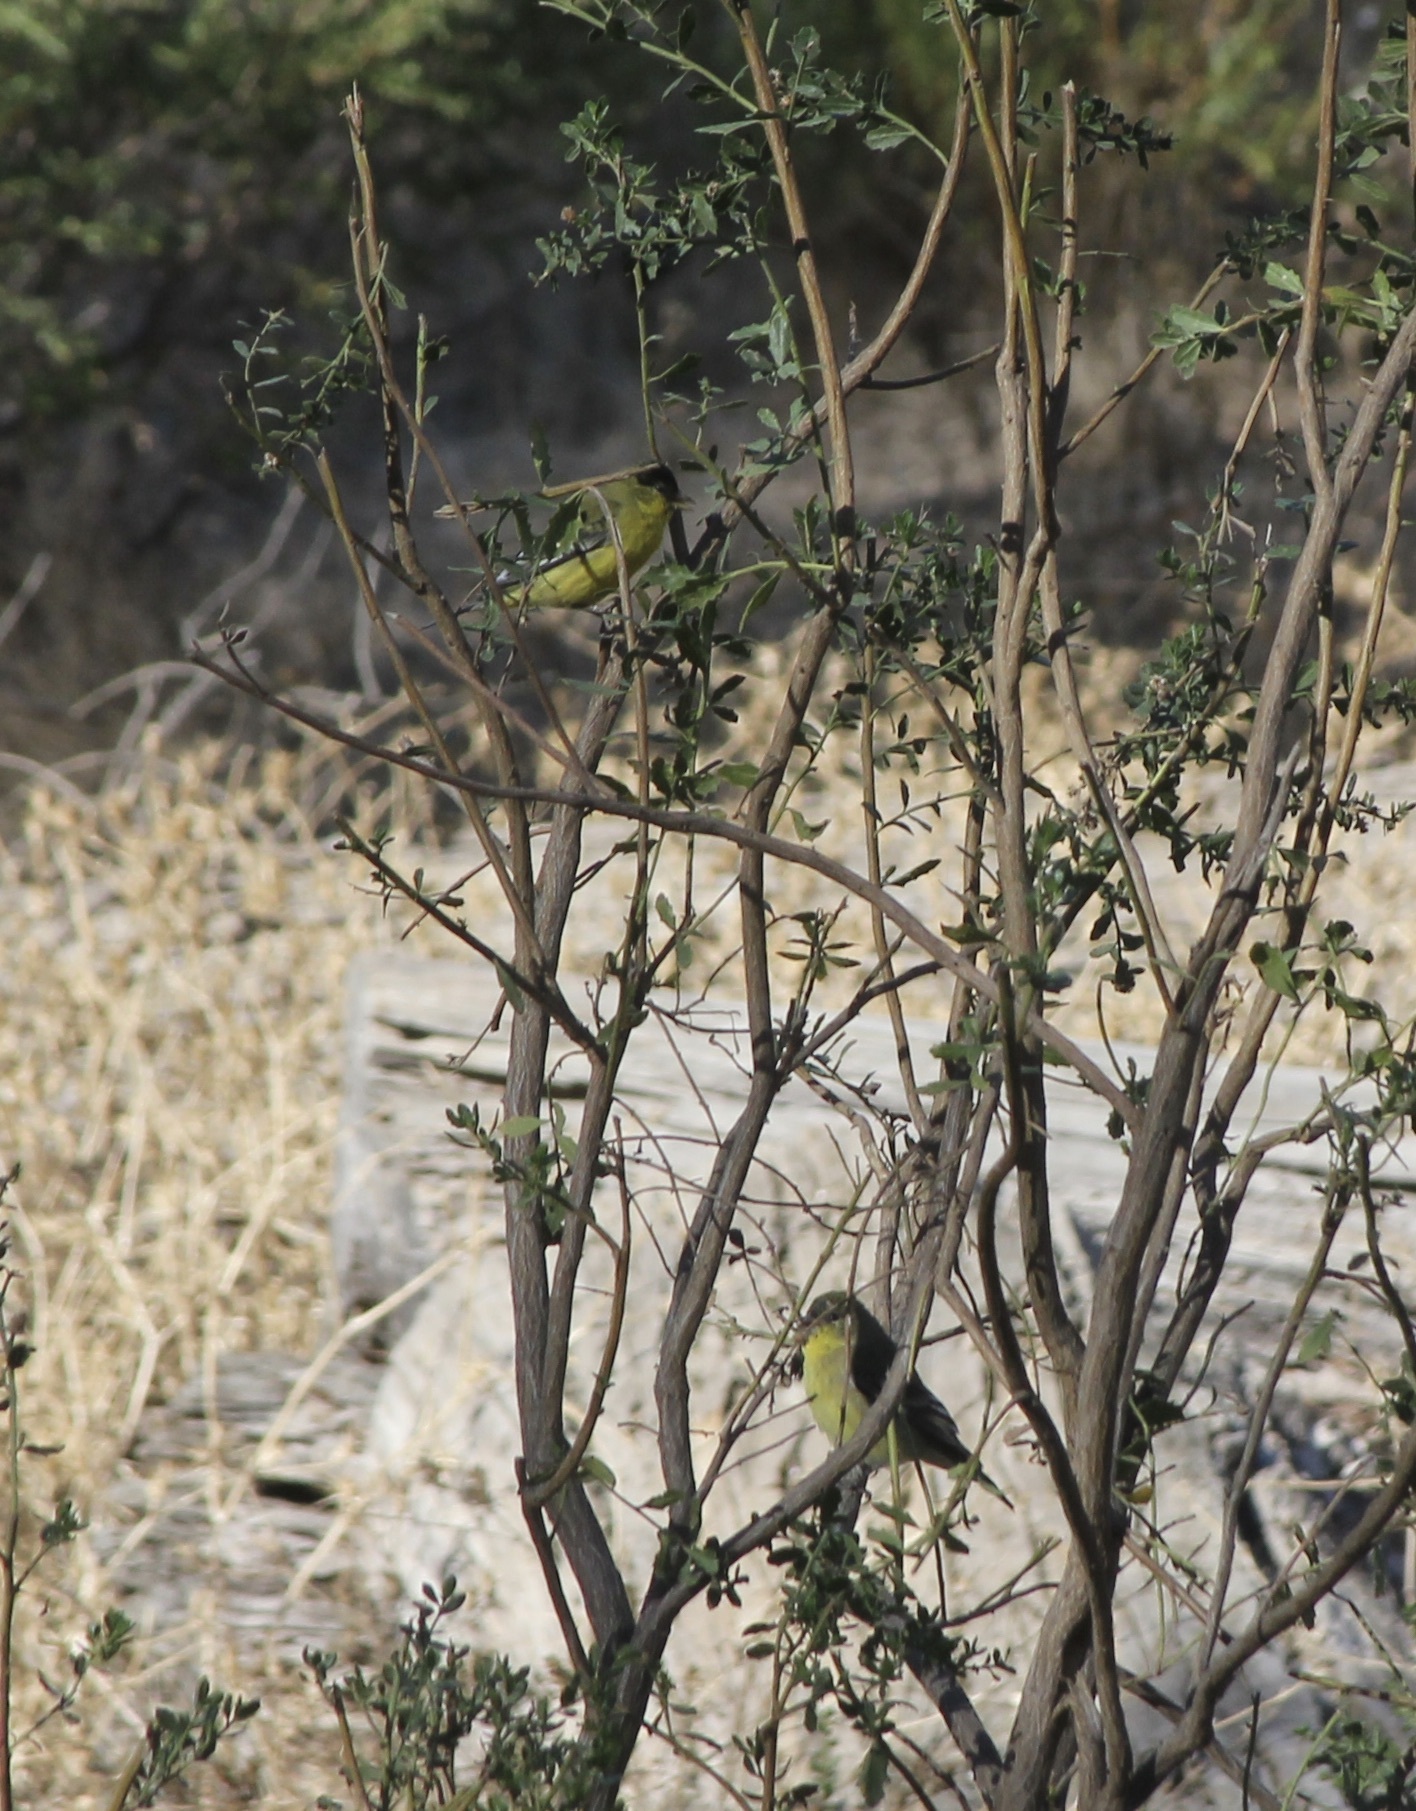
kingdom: Animalia
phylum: Chordata
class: Aves
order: Passeriformes
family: Fringillidae
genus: Spinus
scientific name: Spinus psaltria
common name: Lesser goldfinch
